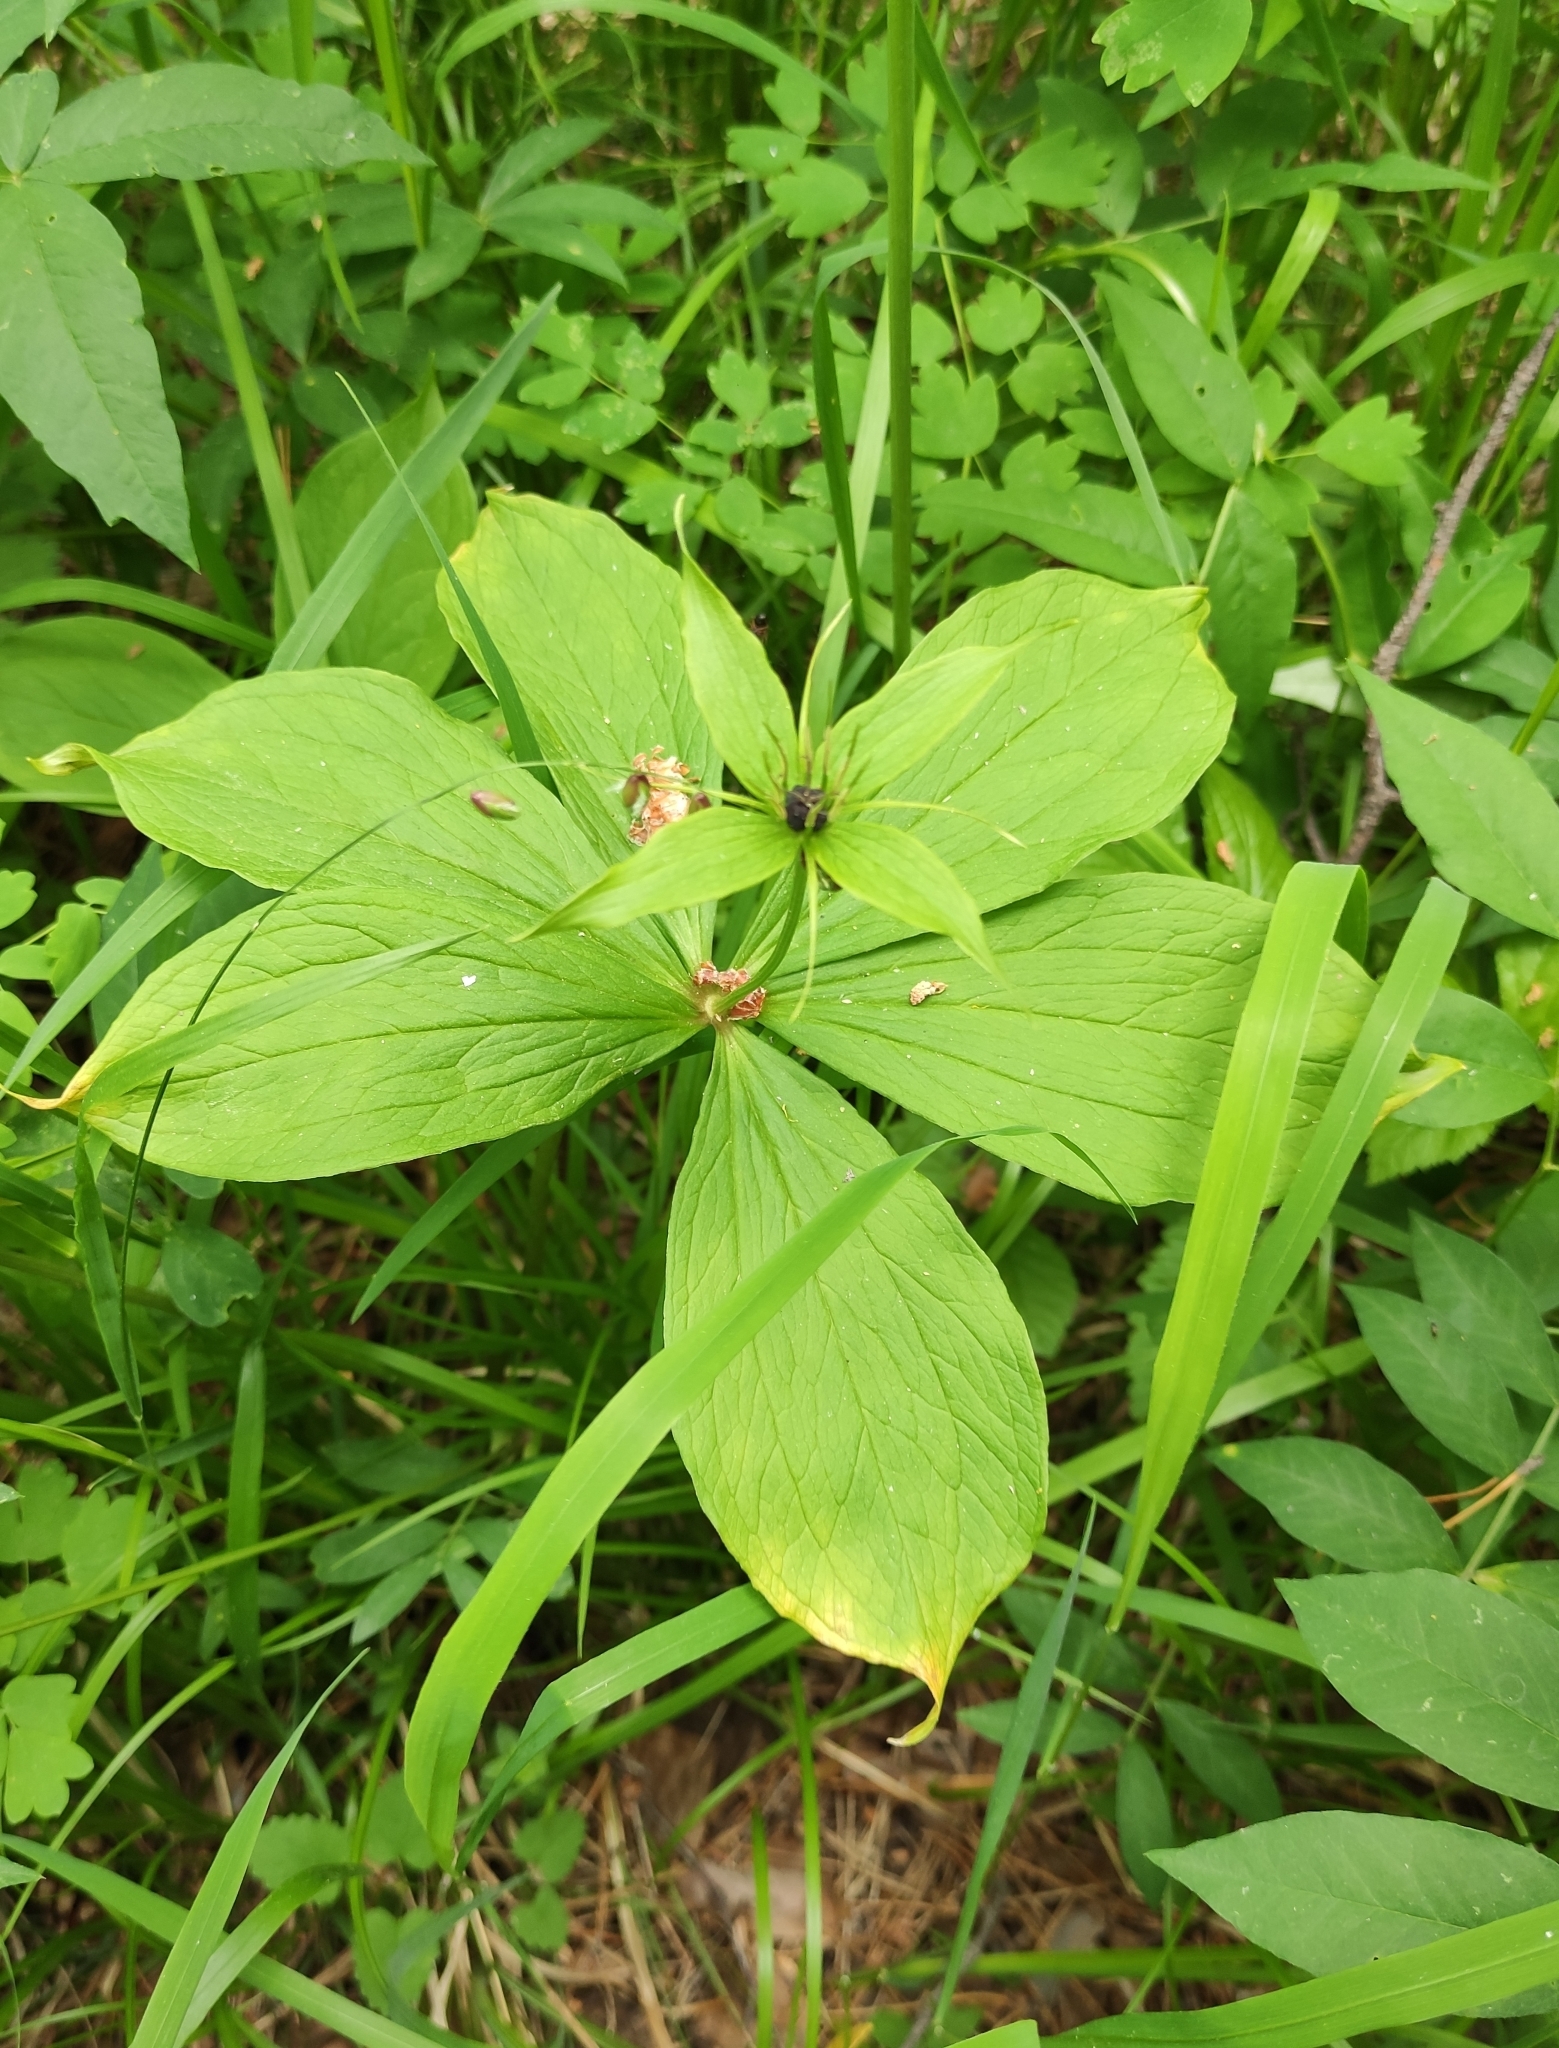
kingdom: Plantae
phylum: Tracheophyta
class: Liliopsida
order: Liliales
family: Melanthiaceae
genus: Paris
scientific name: Paris verticillata
